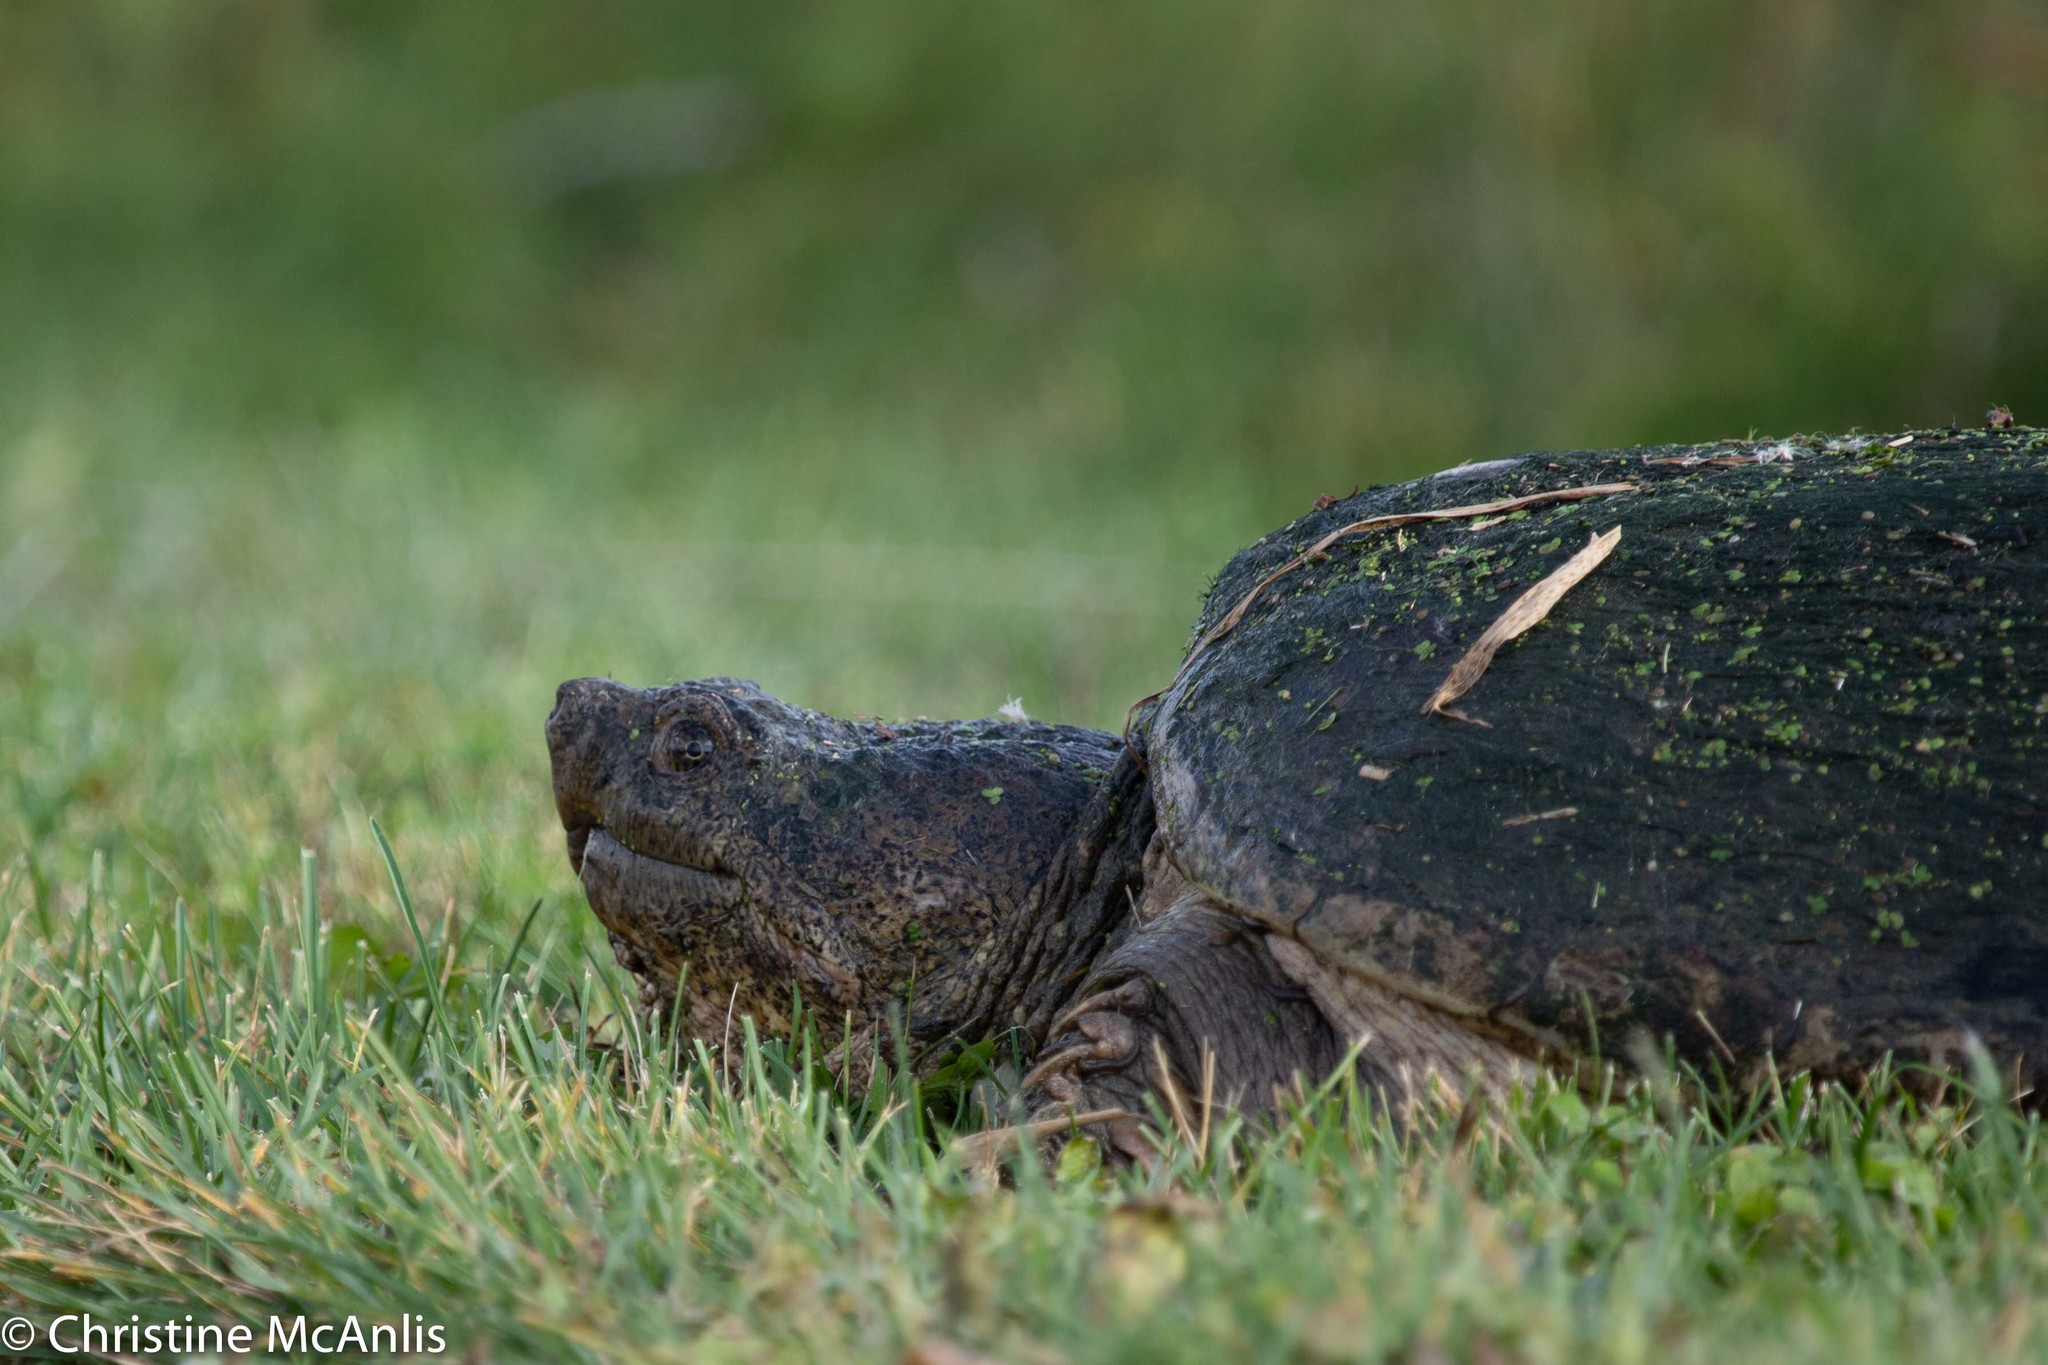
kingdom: Animalia
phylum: Chordata
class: Testudines
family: Chelydridae
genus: Chelydra
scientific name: Chelydra serpentina
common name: Common snapping turtle
